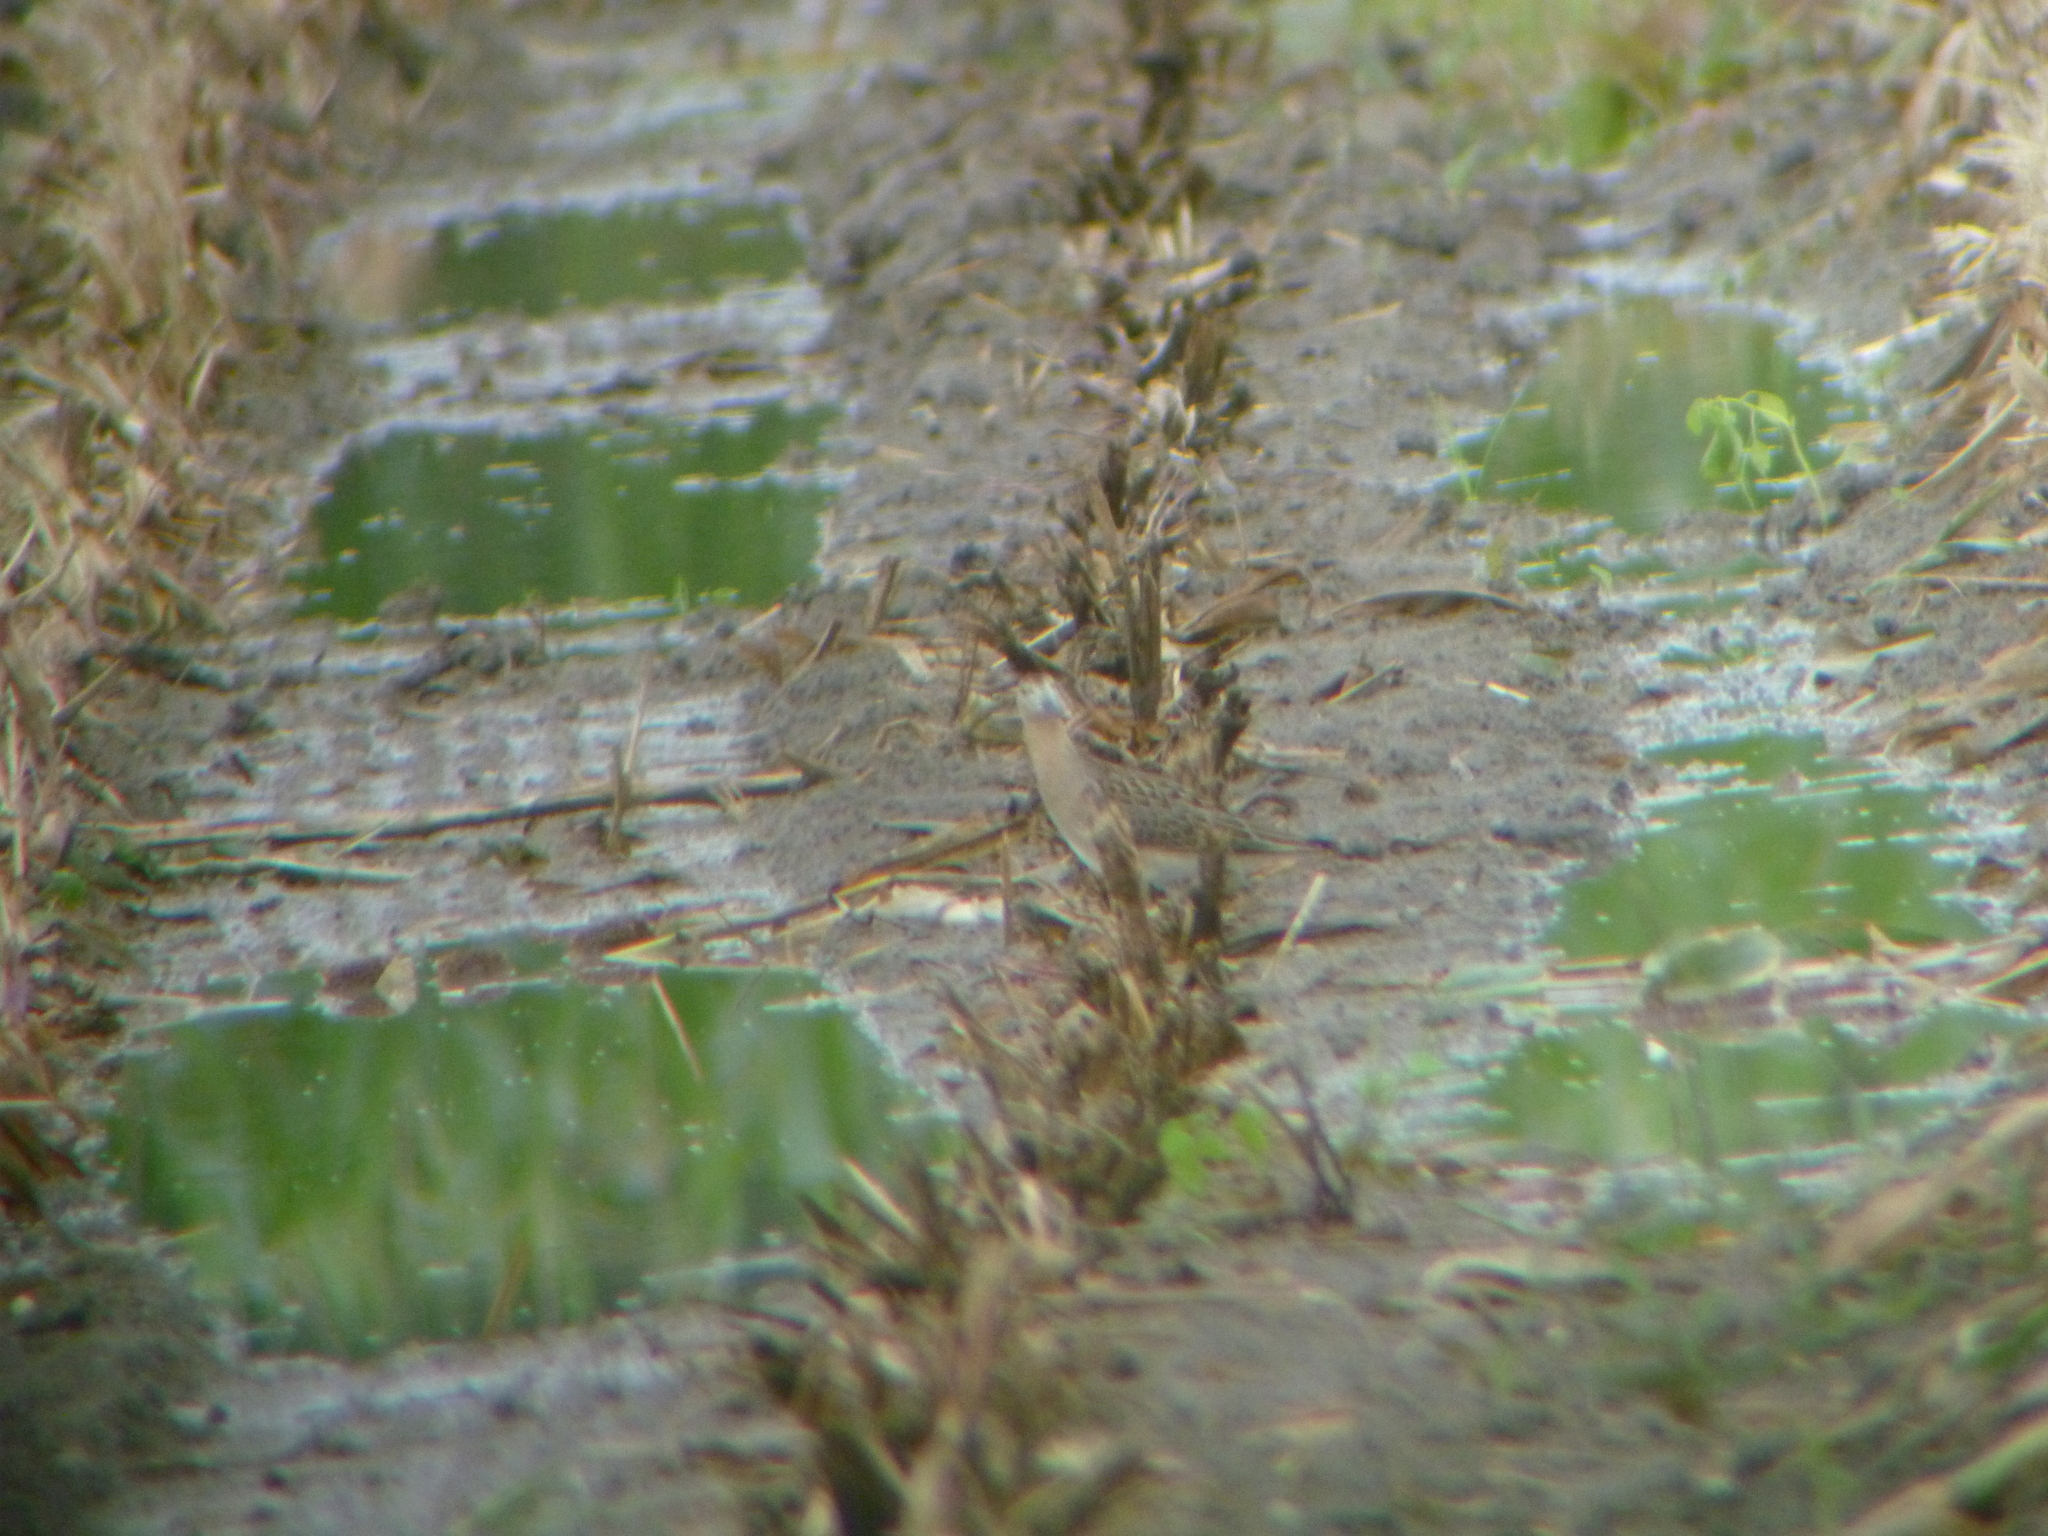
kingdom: Animalia
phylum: Chordata
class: Aves
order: Charadriiformes
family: Scolopacidae
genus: Calidris
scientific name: Calidris pugnax
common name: Ruff
